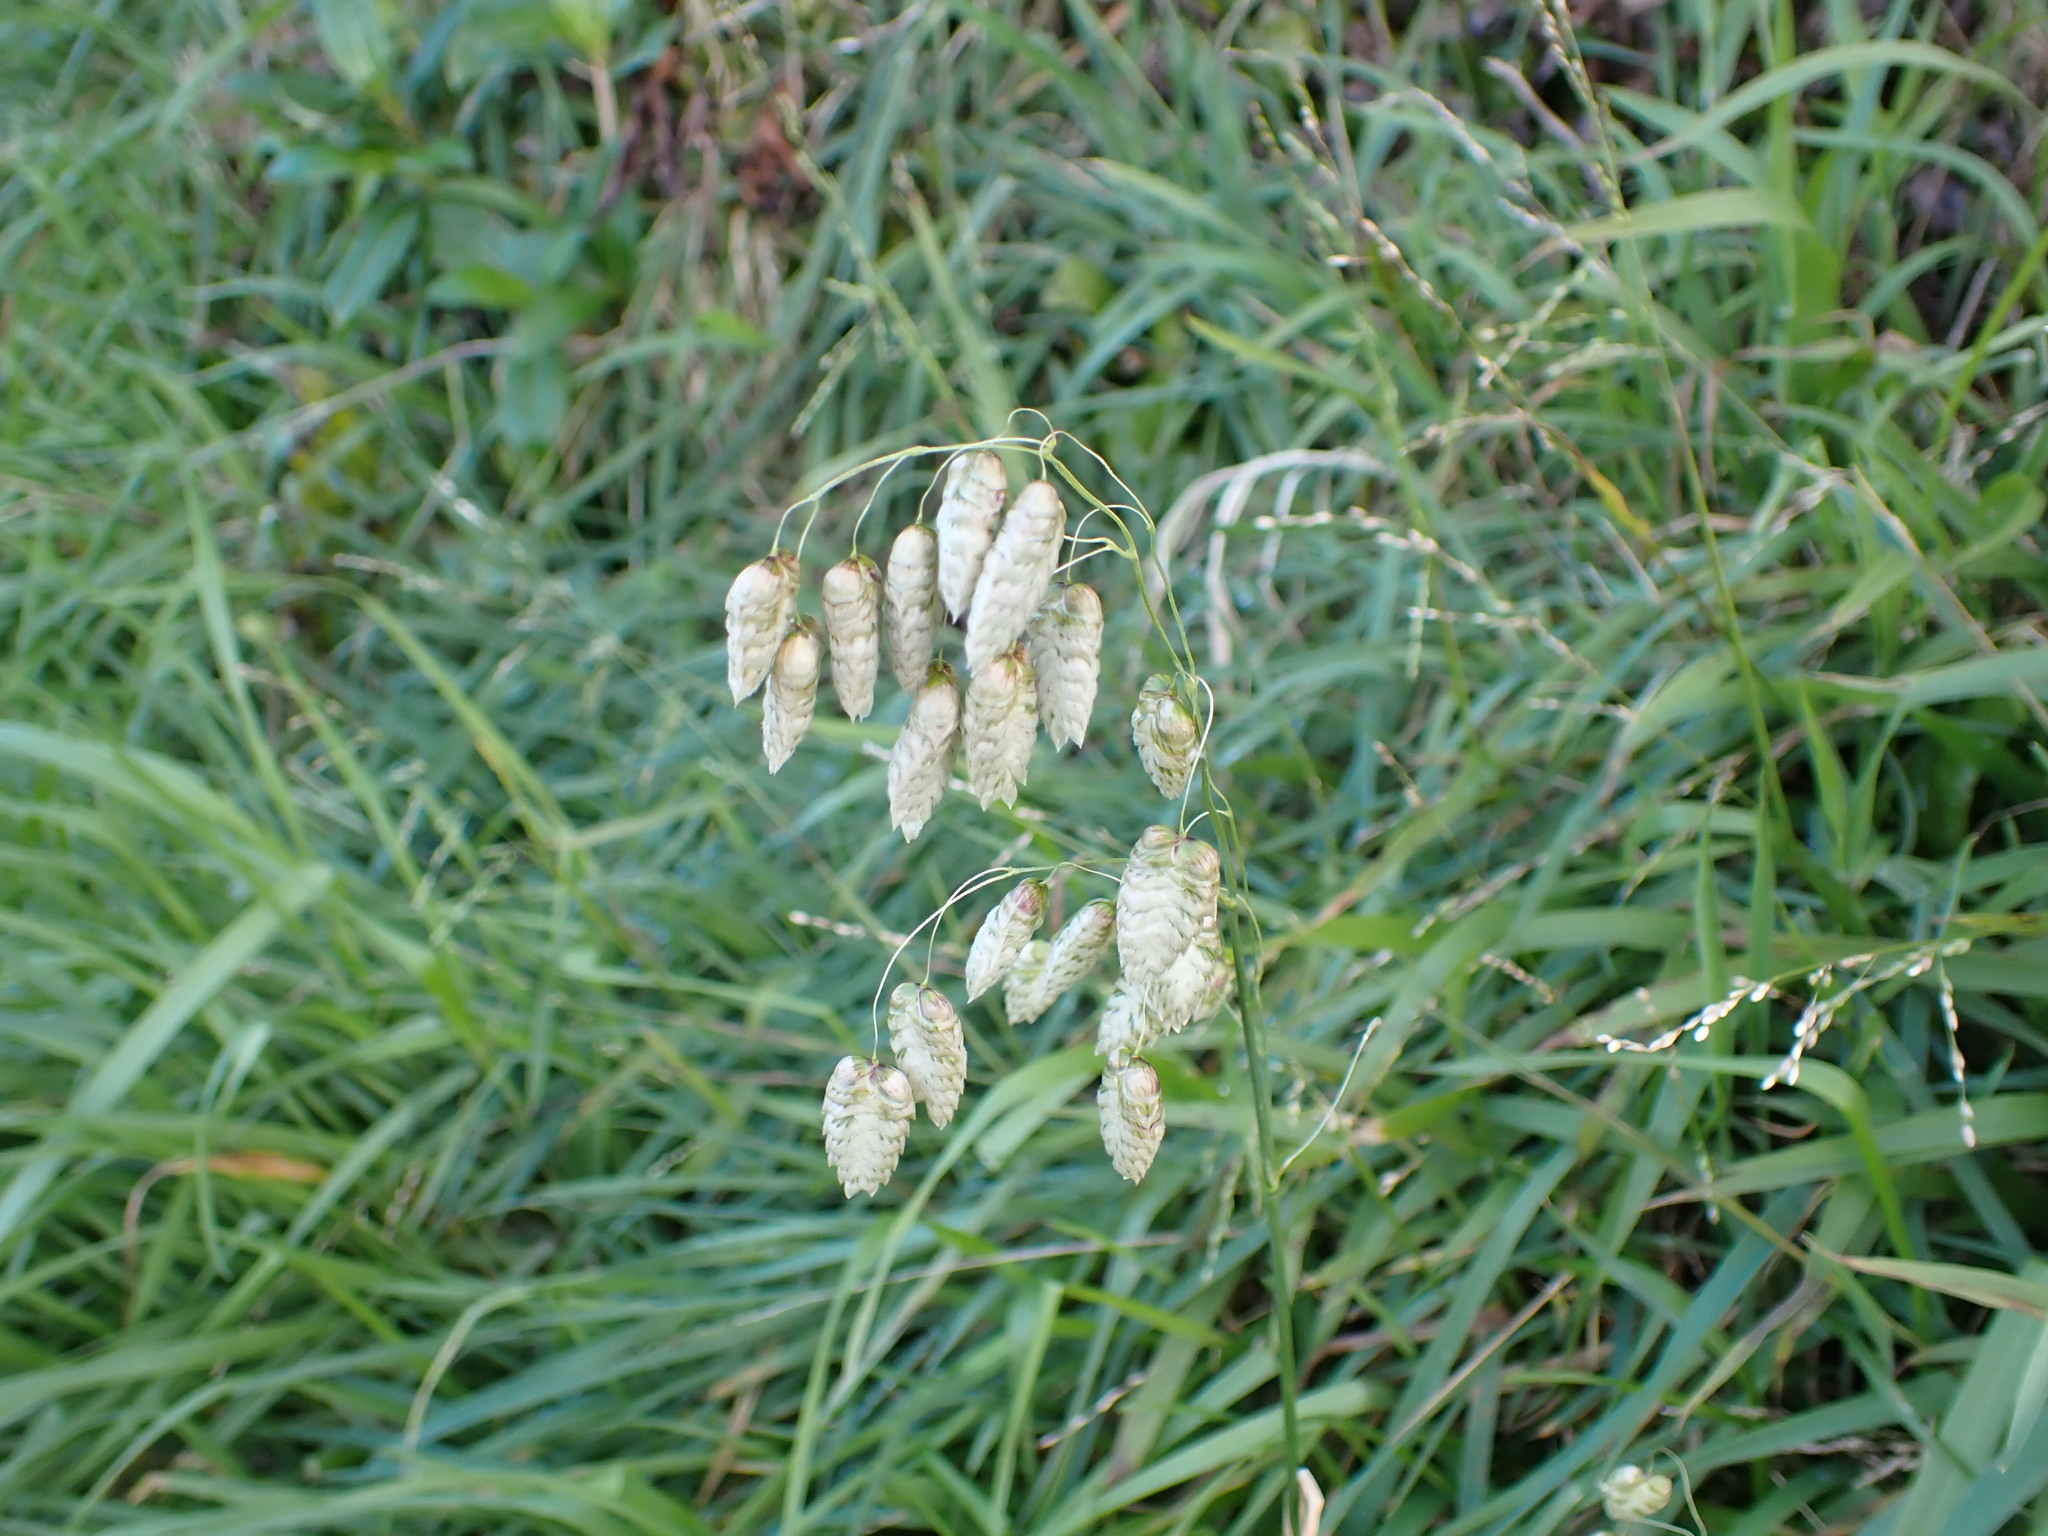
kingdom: Plantae
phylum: Tracheophyta
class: Liliopsida
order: Poales
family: Poaceae
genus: Briza
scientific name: Briza maxima
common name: Big quakinggrass
